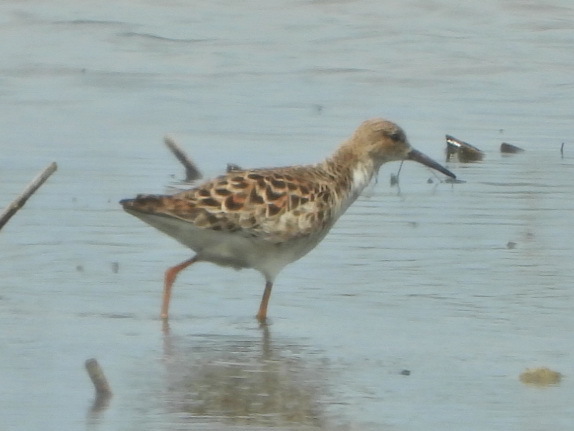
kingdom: Animalia
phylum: Chordata
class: Aves
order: Charadriiformes
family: Scolopacidae
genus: Calidris
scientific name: Calidris pugnax
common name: Ruff
